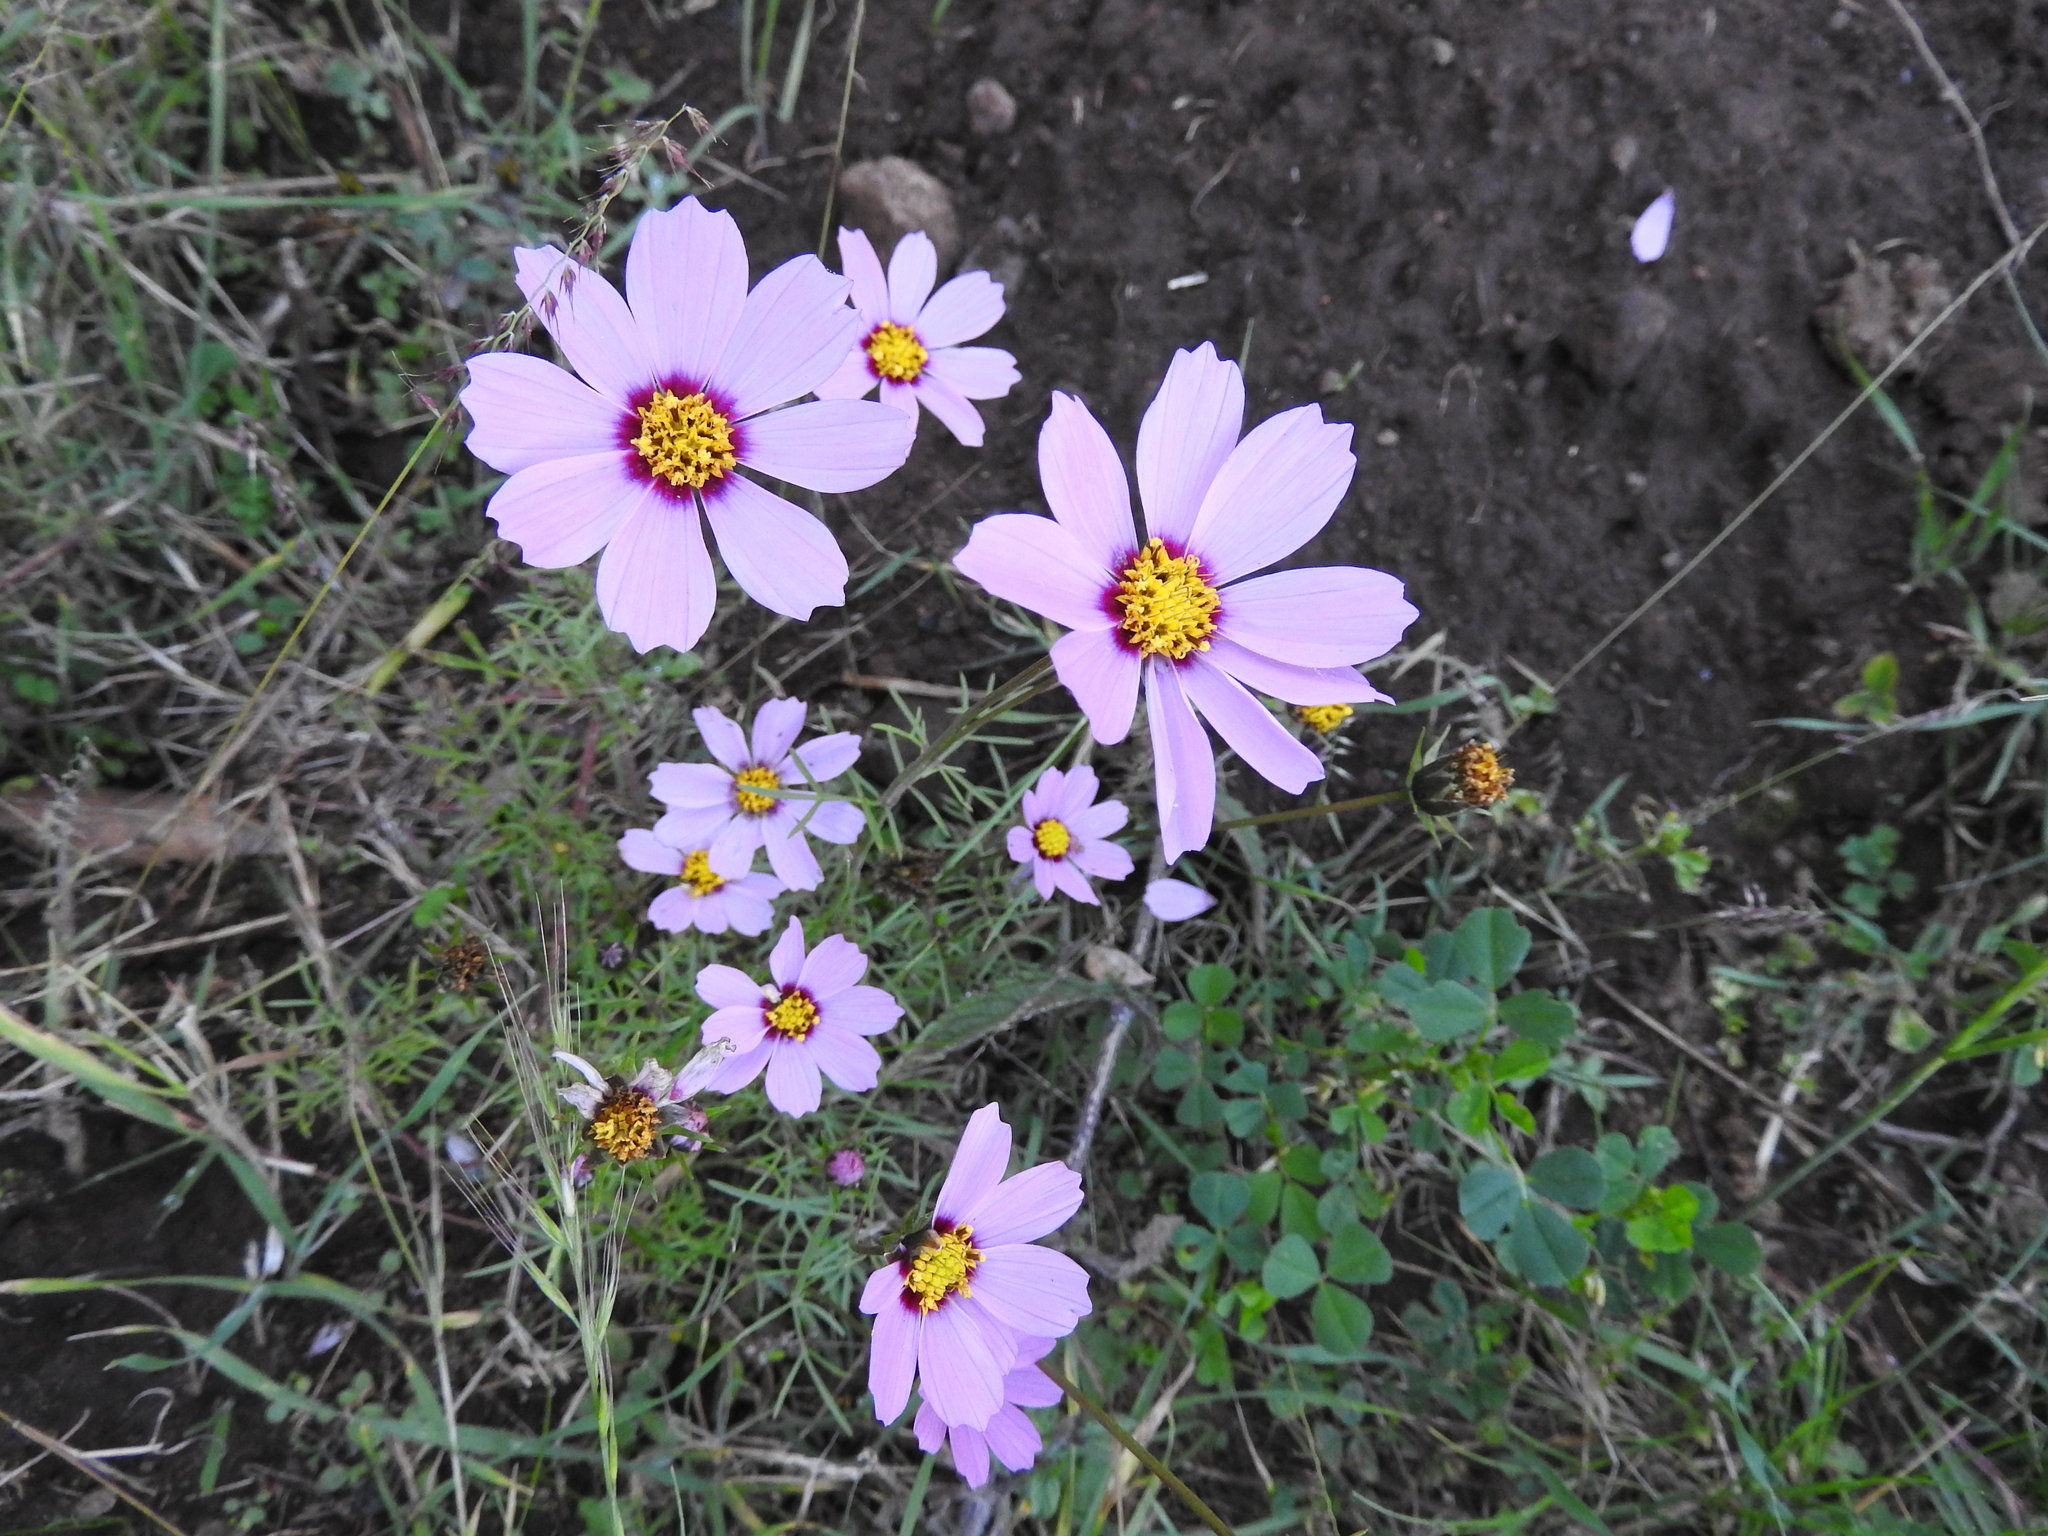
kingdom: Plantae
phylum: Tracheophyta
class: Magnoliopsida
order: Asterales
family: Asteraceae
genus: Cosmos
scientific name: Cosmos bipinnatus
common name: Garden cosmos
